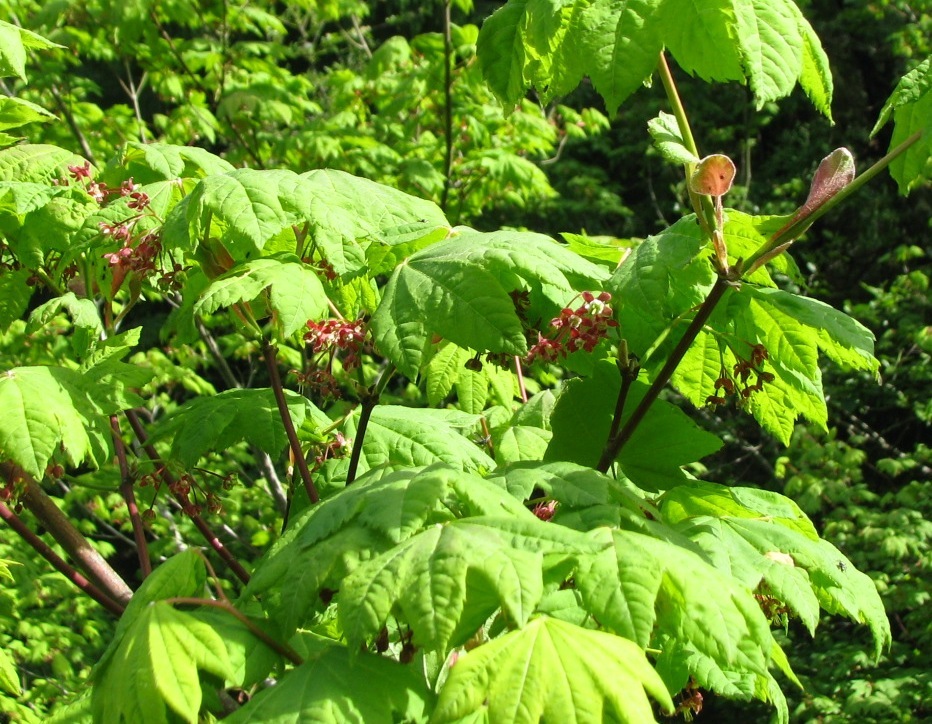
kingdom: Plantae
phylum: Tracheophyta
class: Magnoliopsida
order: Sapindales
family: Sapindaceae
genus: Acer
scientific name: Acer circinatum
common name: Vine maple
